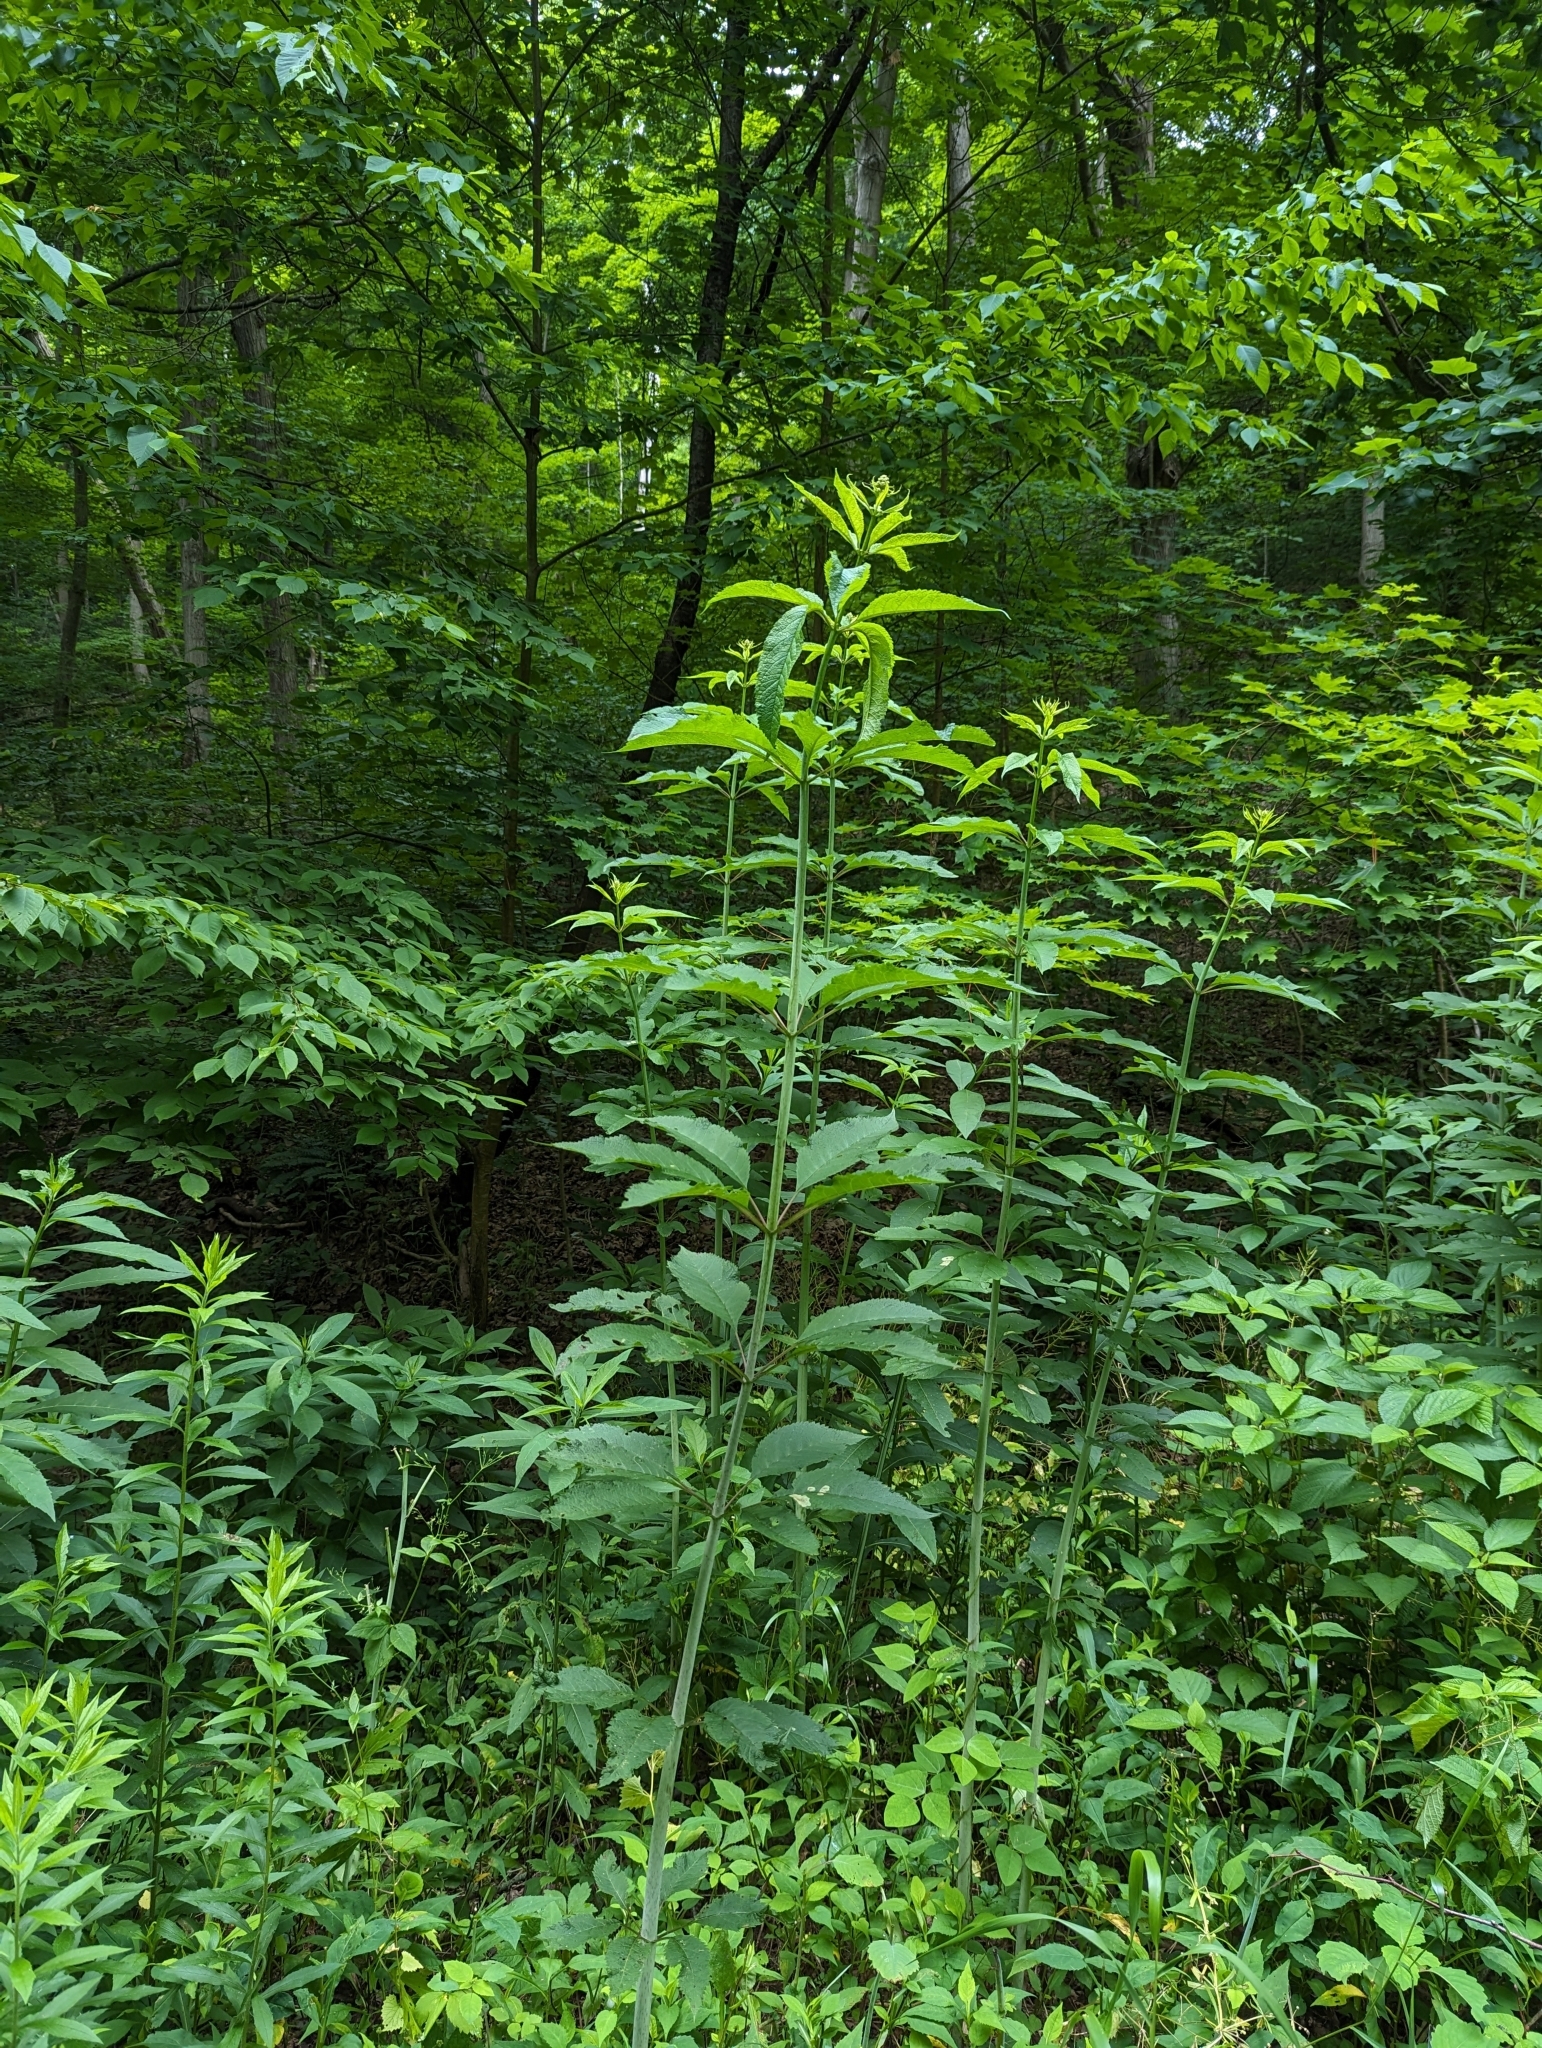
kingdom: Plantae
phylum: Tracheophyta
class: Magnoliopsida
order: Asterales
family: Asteraceae
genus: Eutrochium
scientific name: Eutrochium fistulosum
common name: Trumpetweed
